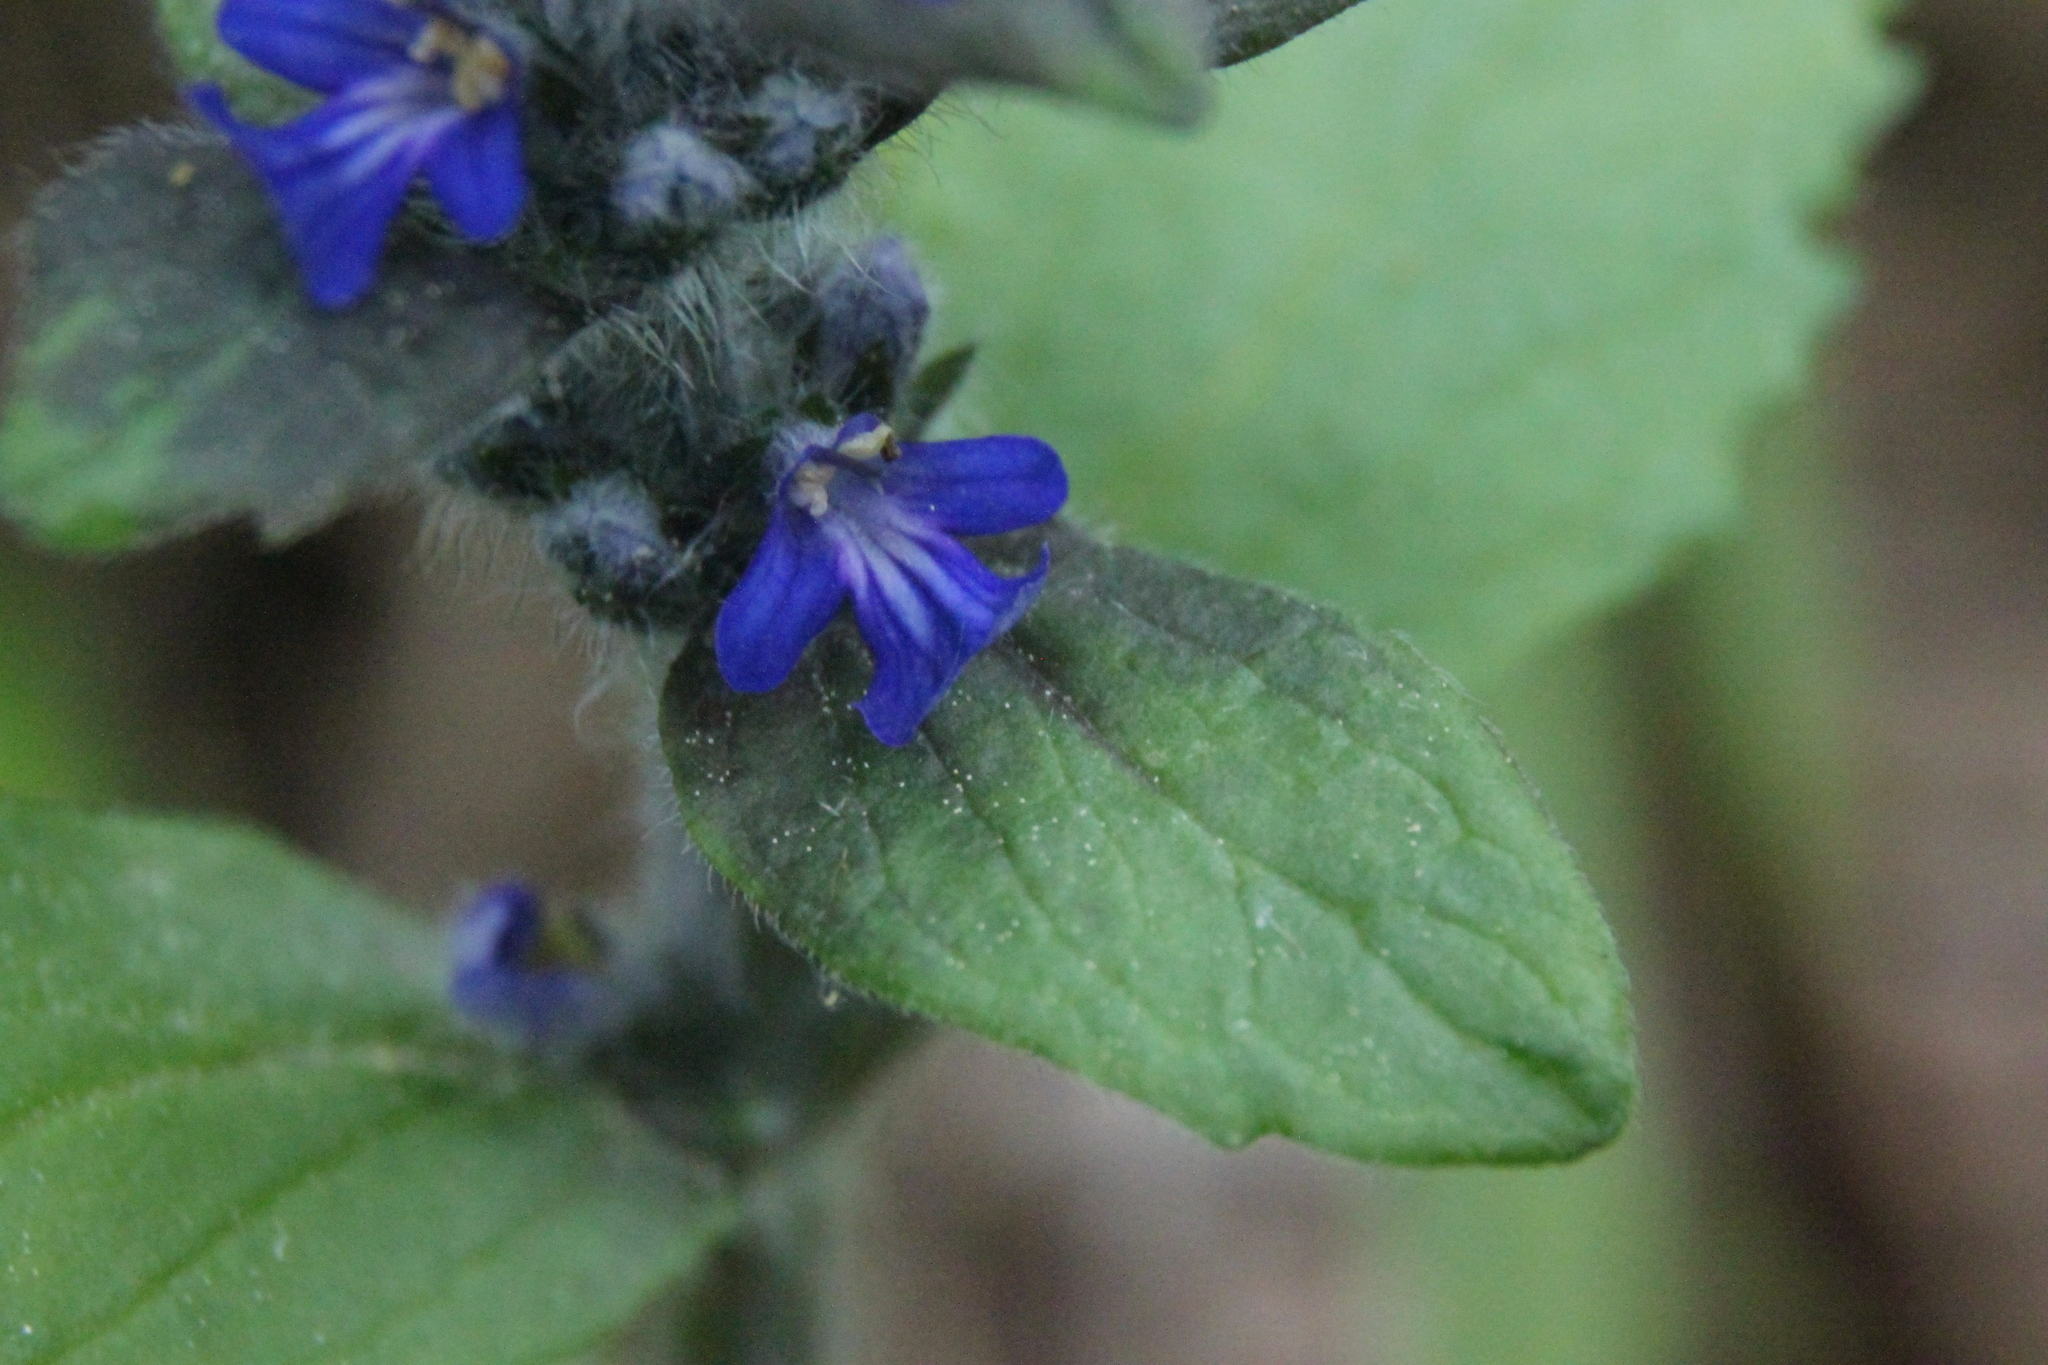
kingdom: Plantae
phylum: Tracheophyta
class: Magnoliopsida
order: Lamiales
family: Lamiaceae
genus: Ajuga
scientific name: Ajuga reptans
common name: Bugle
